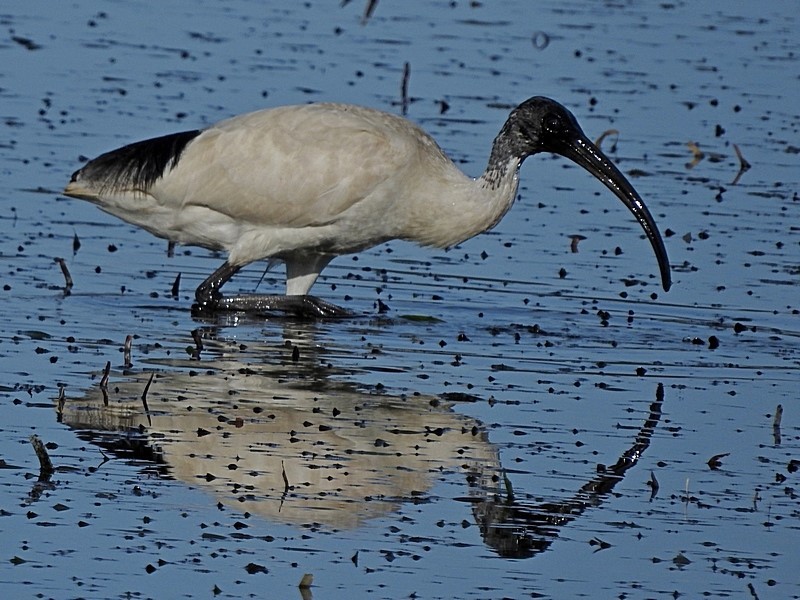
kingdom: Animalia
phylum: Chordata
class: Aves
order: Pelecaniformes
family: Threskiornithidae
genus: Threskiornis
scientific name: Threskiornis molucca
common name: Australian white ibis
